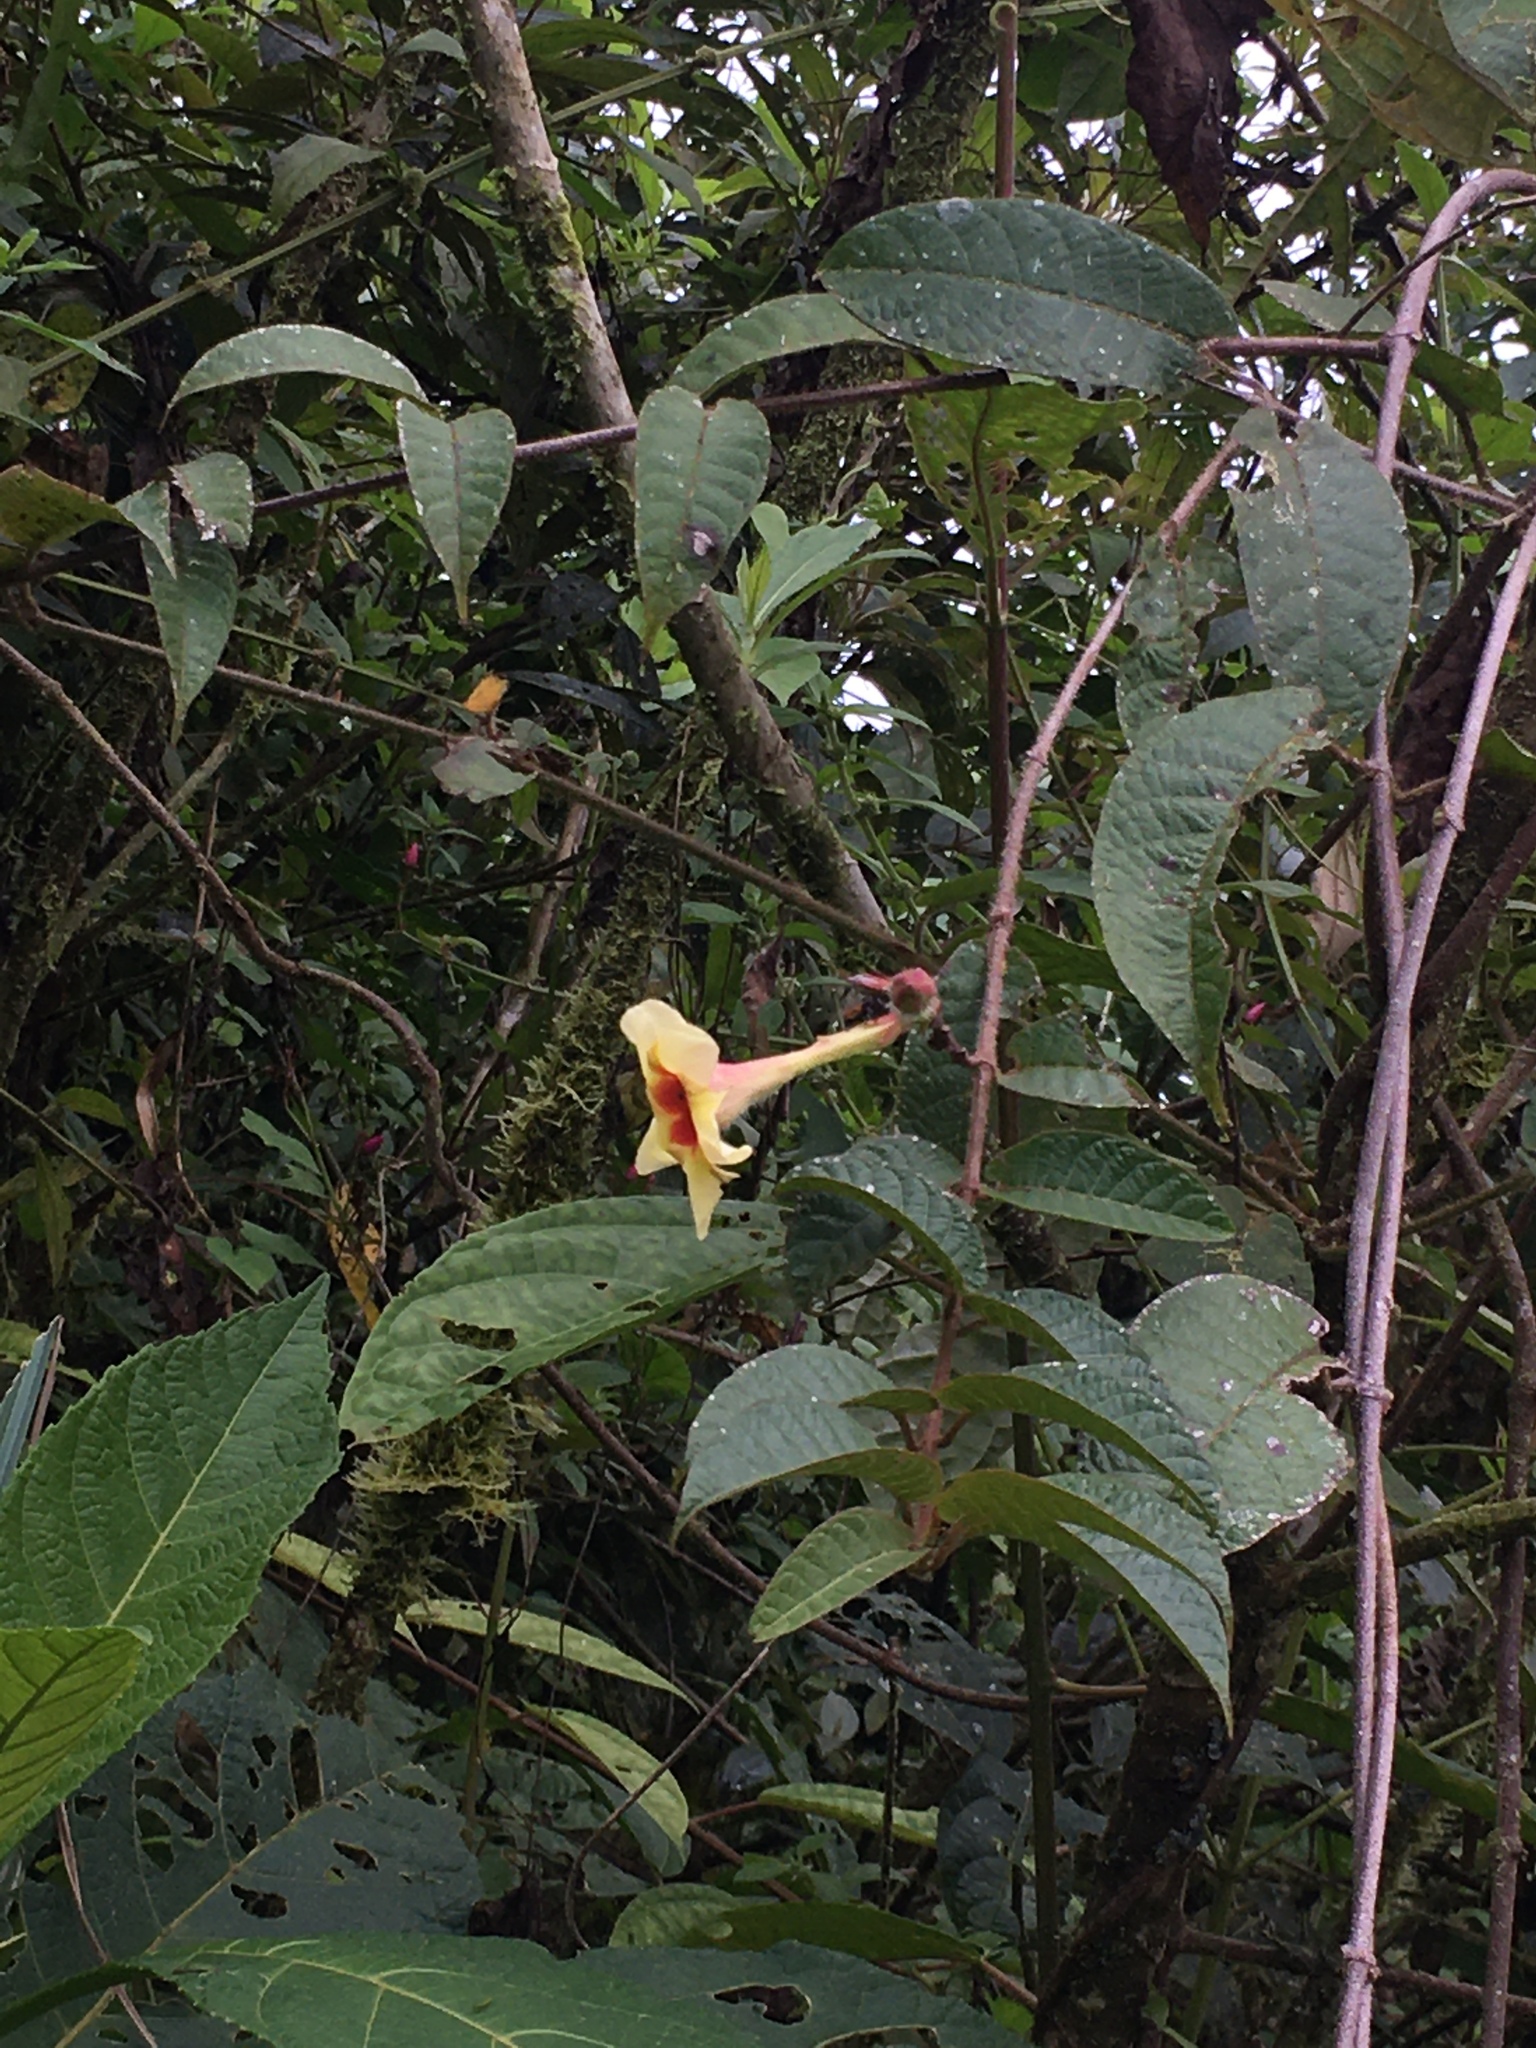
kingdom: Plantae
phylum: Tracheophyta
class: Magnoliopsida
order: Gentianales
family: Apocynaceae
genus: Mandevilla
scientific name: Mandevilla hirsuta
